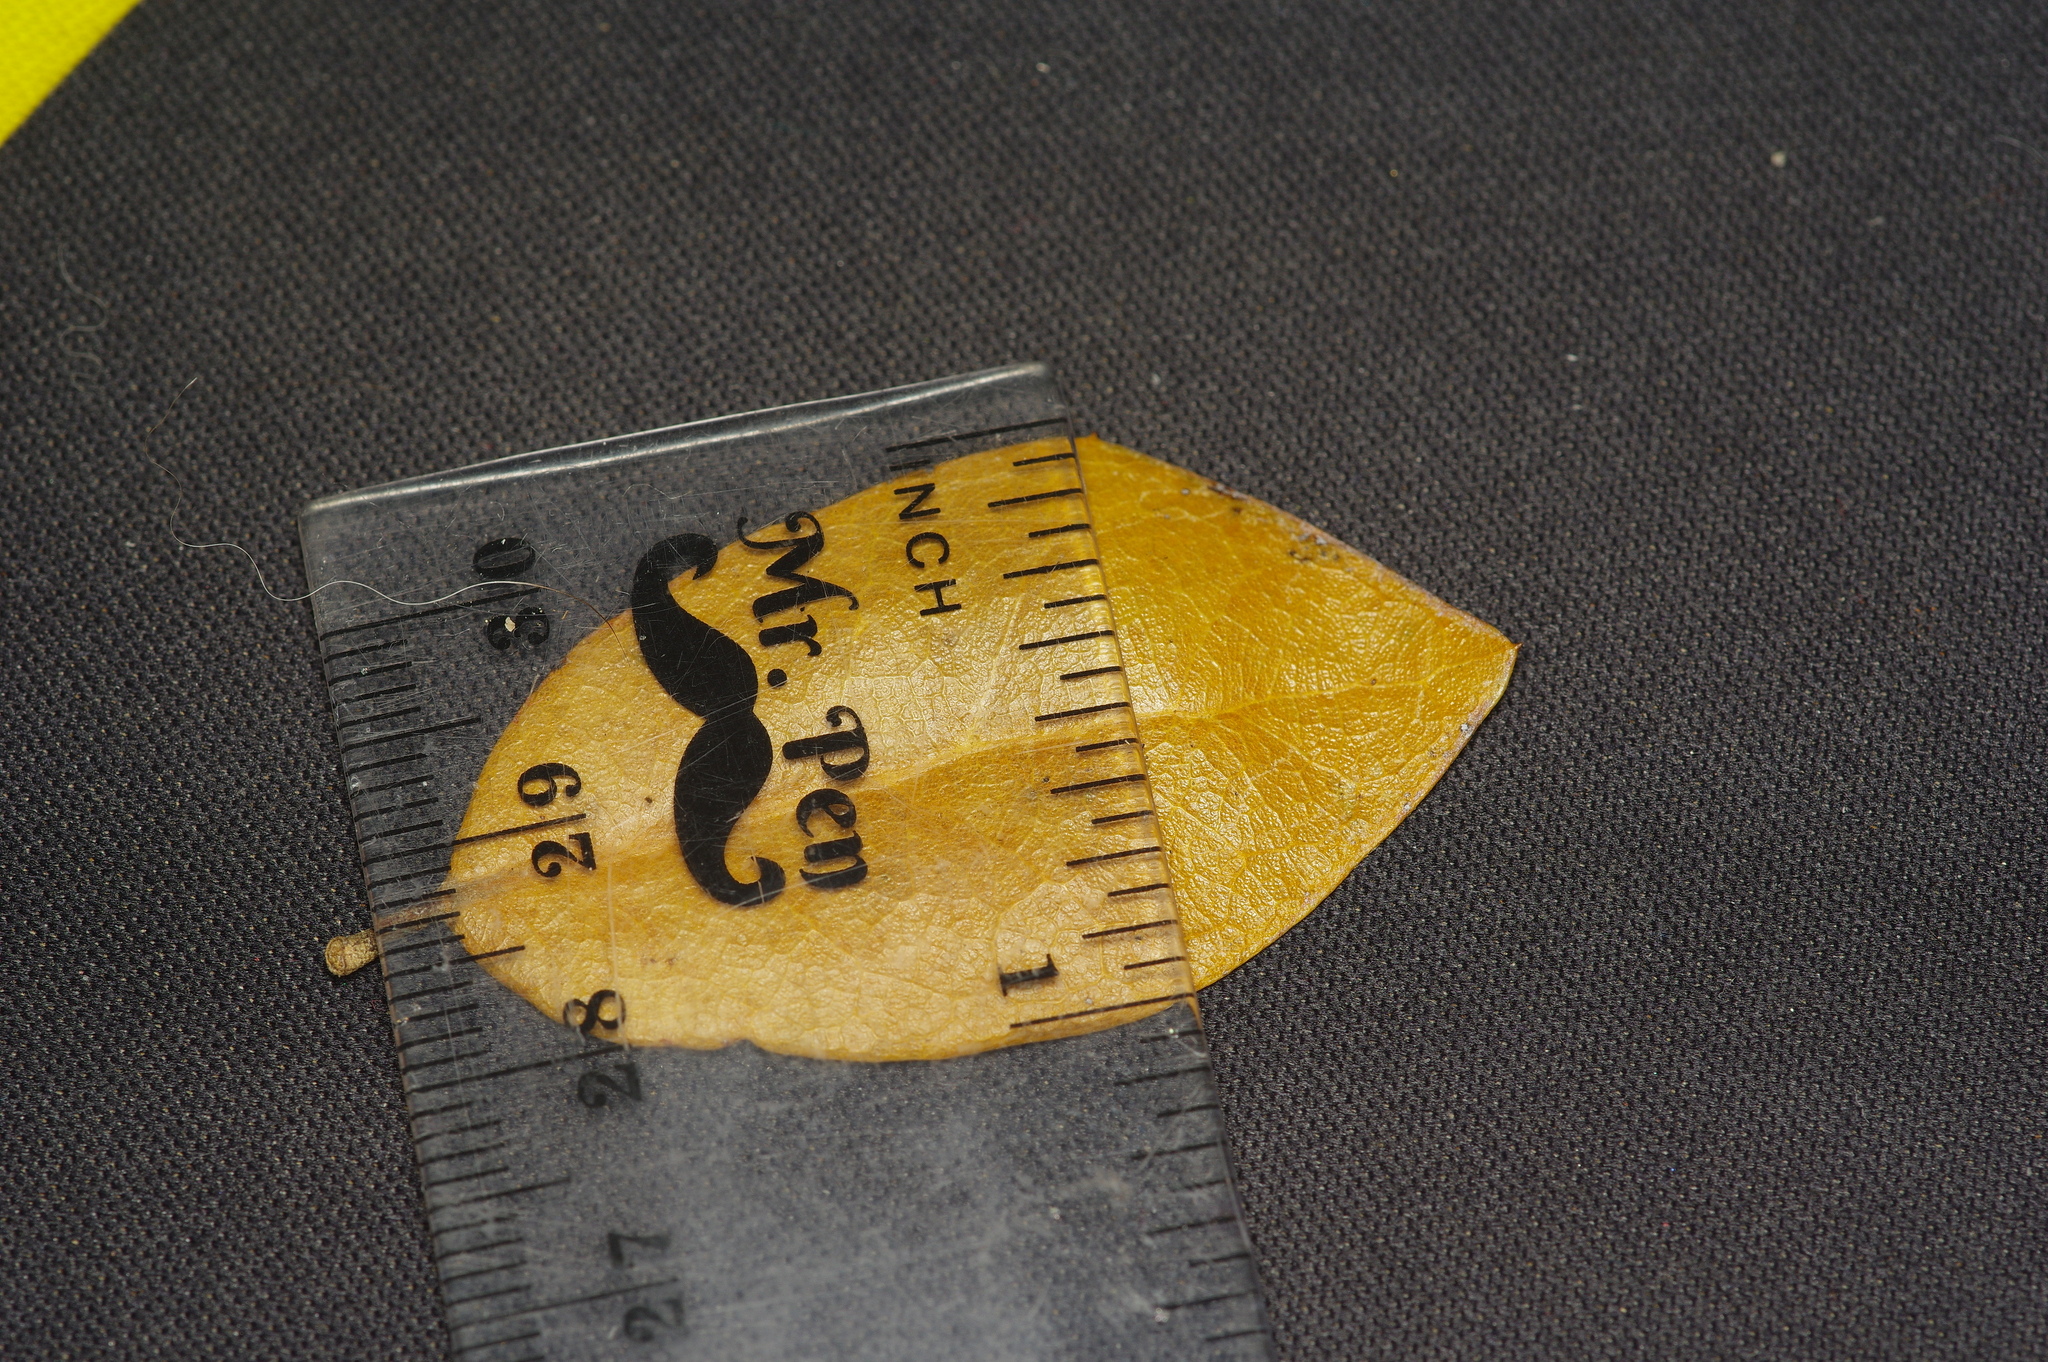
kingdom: Animalia
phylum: Arthropoda
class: Insecta
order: Lepidoptera
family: Noctuidae
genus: Acronicta
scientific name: Acronicta
